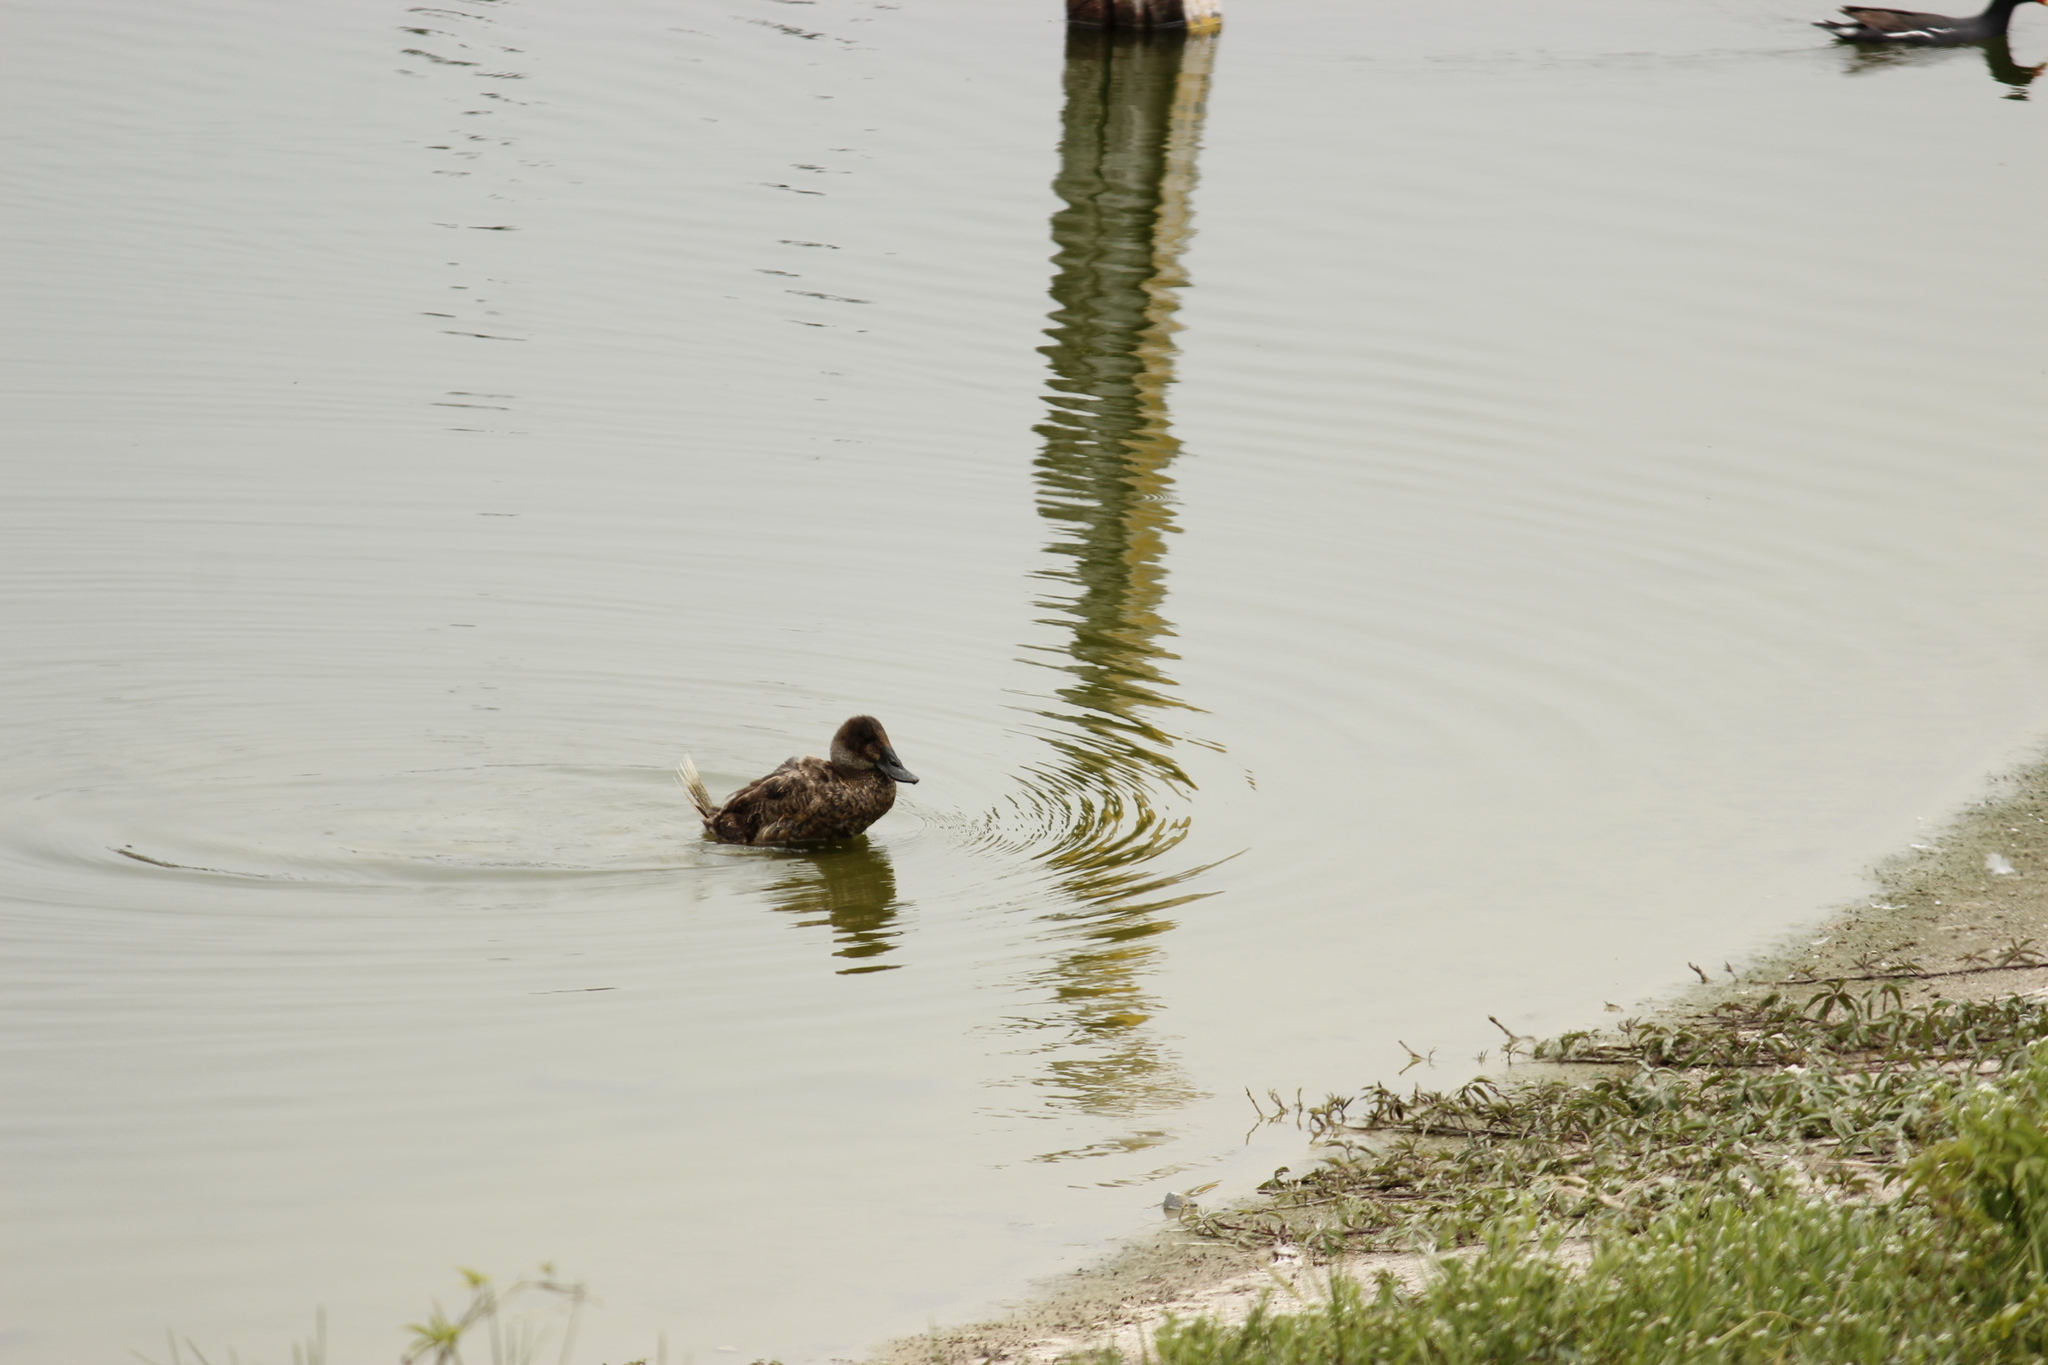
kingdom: Animalia
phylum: Chordata
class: Aves
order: Anseriformes
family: Anatidae
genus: Oxyura
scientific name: Oxyura ferruginea
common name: Andean duck
